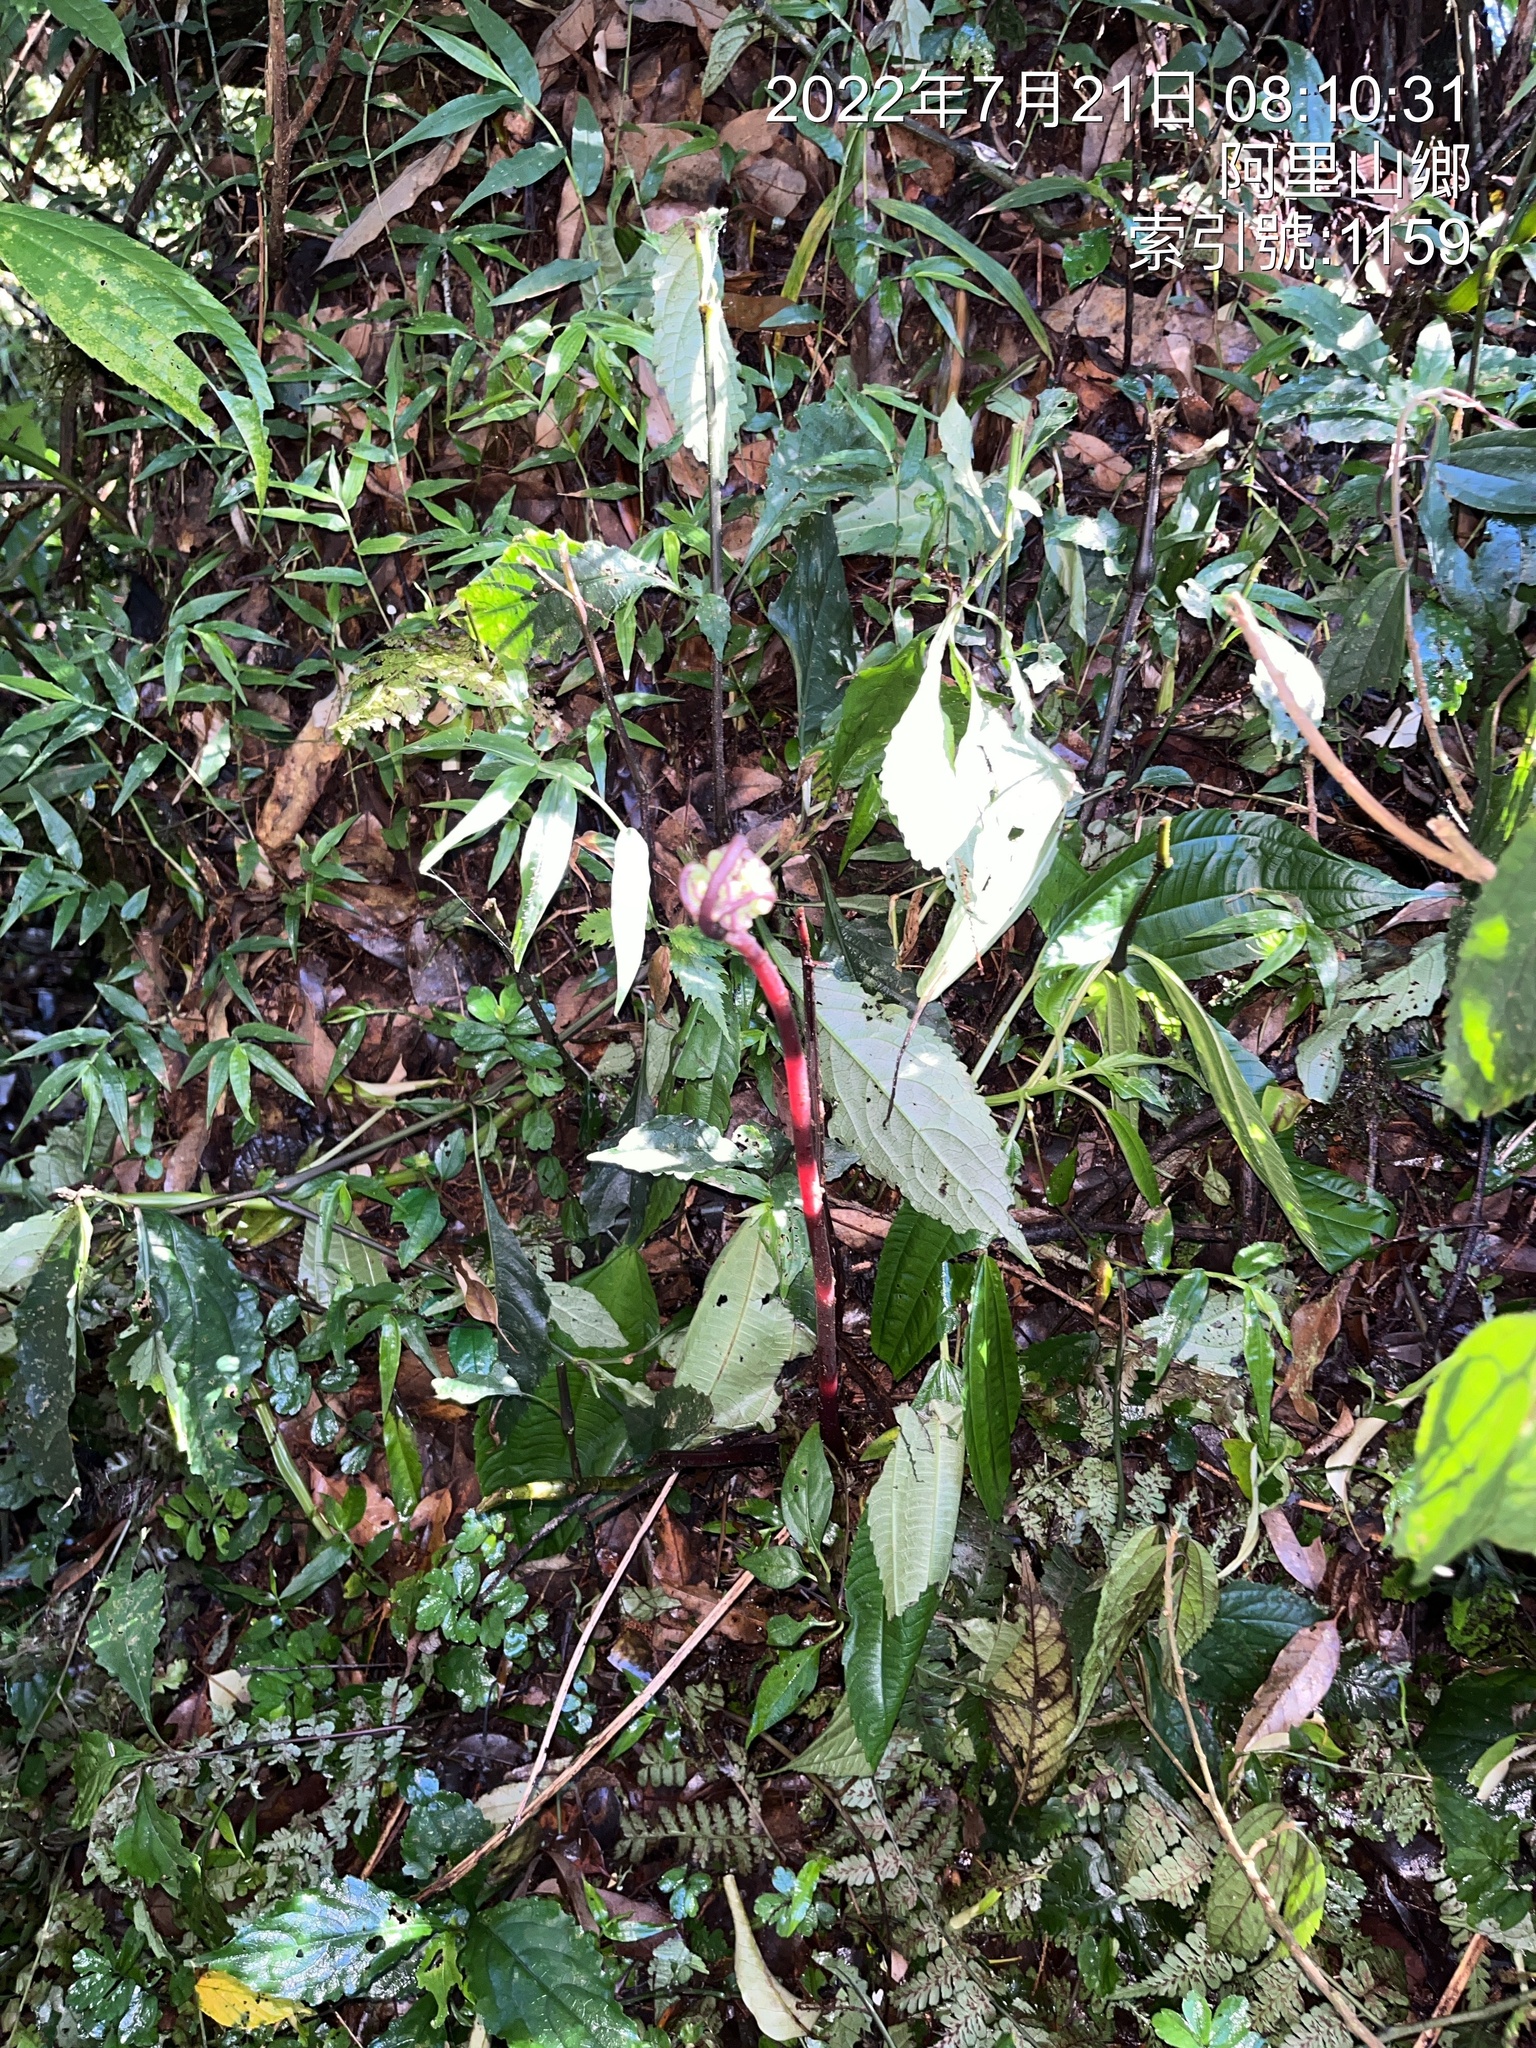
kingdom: Plantae
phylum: Tracheophyta
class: Magnoliopsida
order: Santalales
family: Balanophoraceae
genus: Balanophora
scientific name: Balanophora laxiflora
